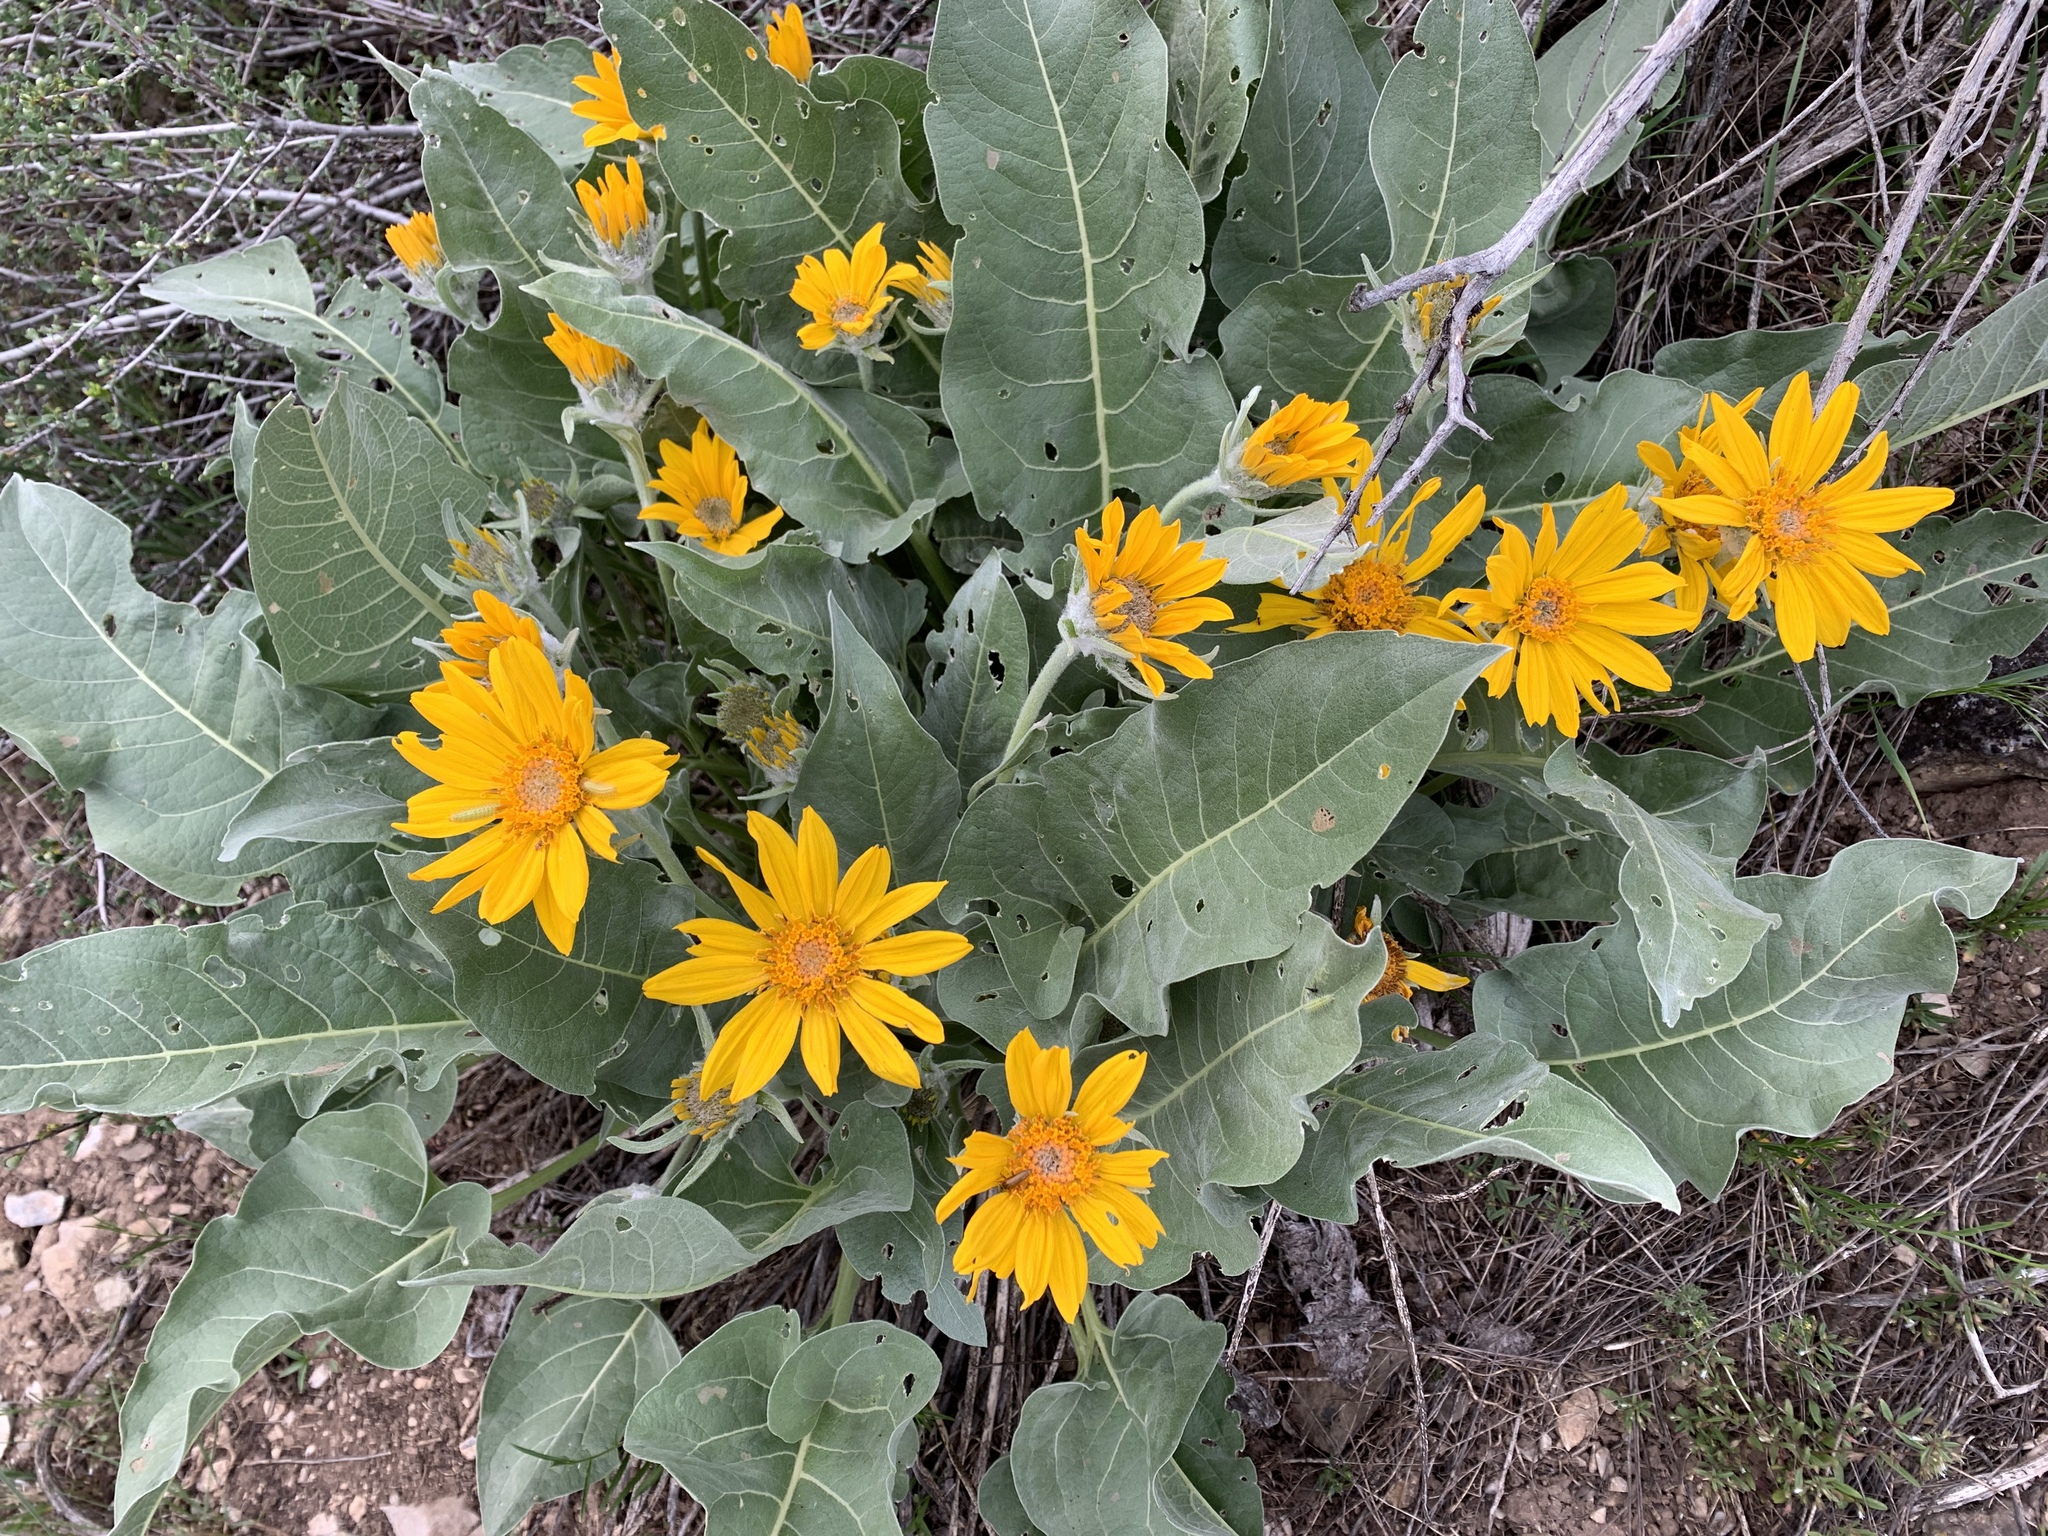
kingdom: Plantae
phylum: Tracheophyta
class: Magnoliopsida
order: Asterales
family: Asteraceae
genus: Wyethia
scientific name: Wyethia sagittata
